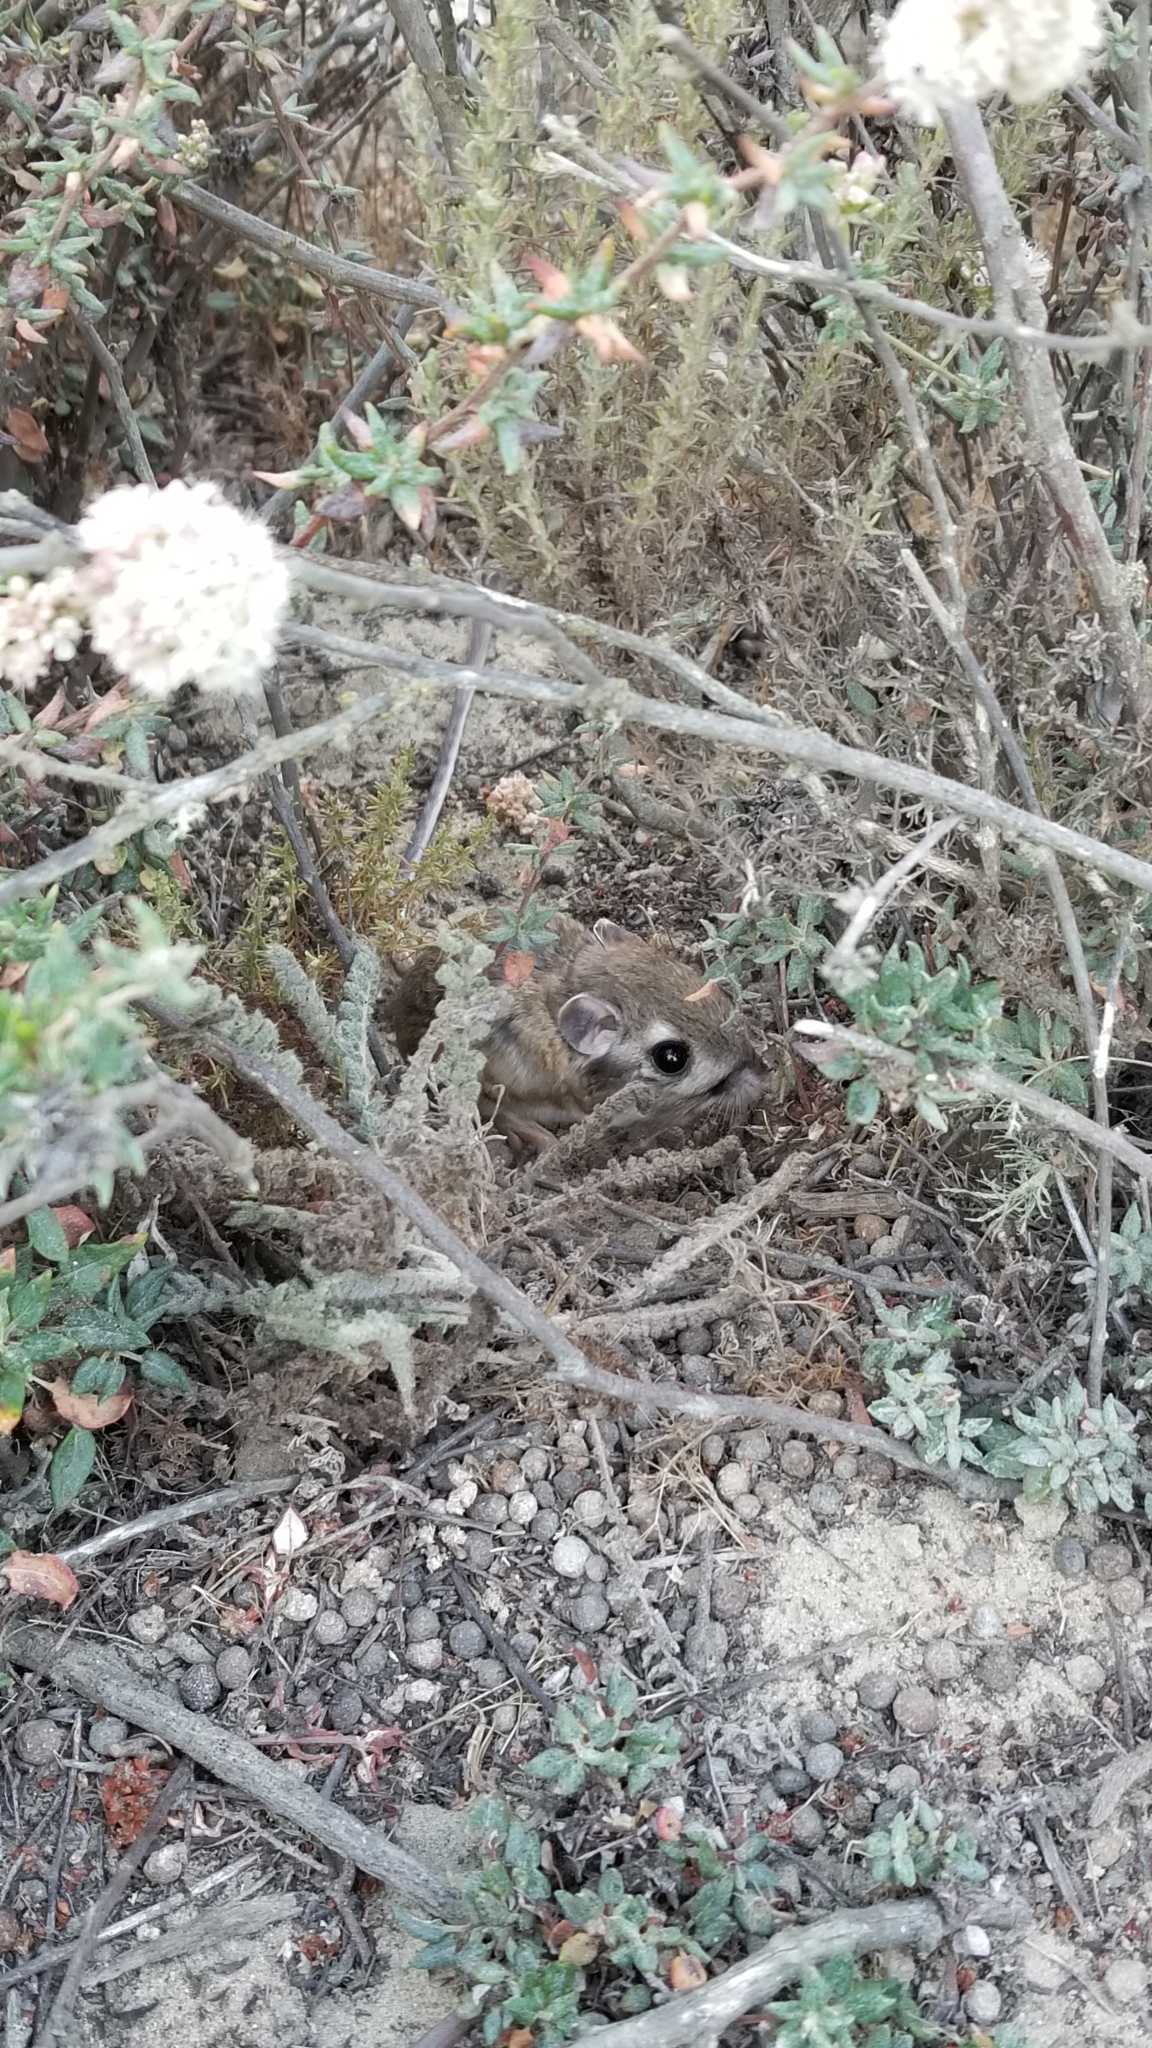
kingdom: Animalia
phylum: Chordata
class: Mammalia
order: Rodentia
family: Heteromyidae
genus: Dipodomys
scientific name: Dipodomys heermanni
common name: Heermann's kangaroo rat
